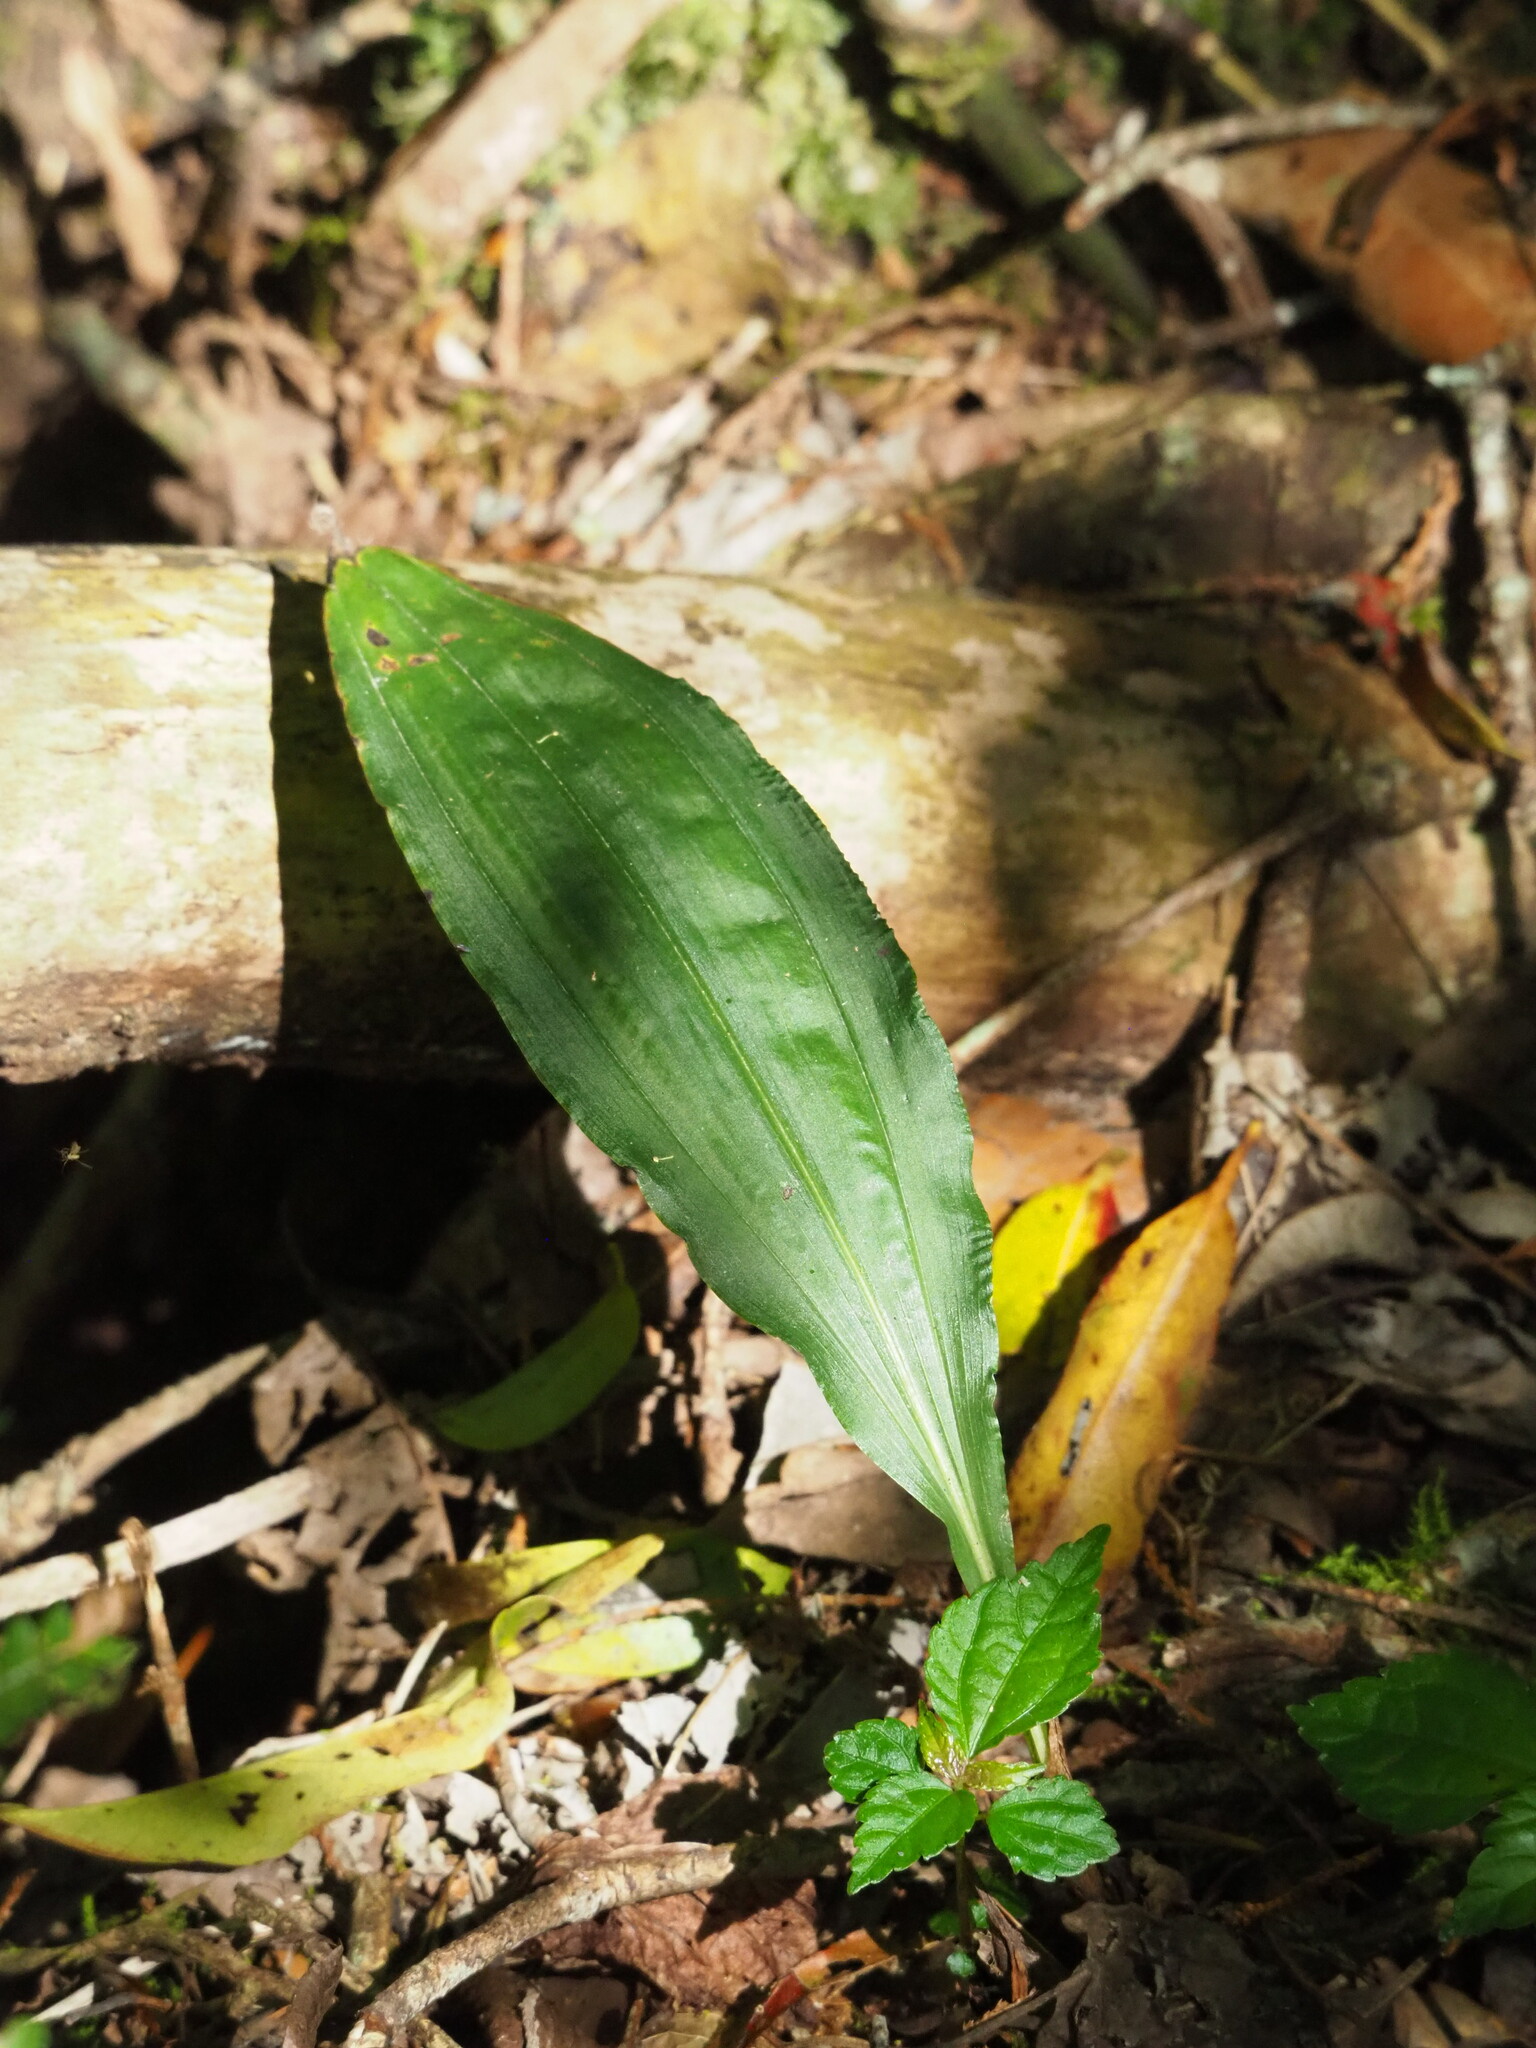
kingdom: Plantae
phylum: Tracheophyta
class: Liliopsida
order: Asparagales
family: Orchidaceae
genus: Cremastra
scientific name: Cremastra appendiculata
